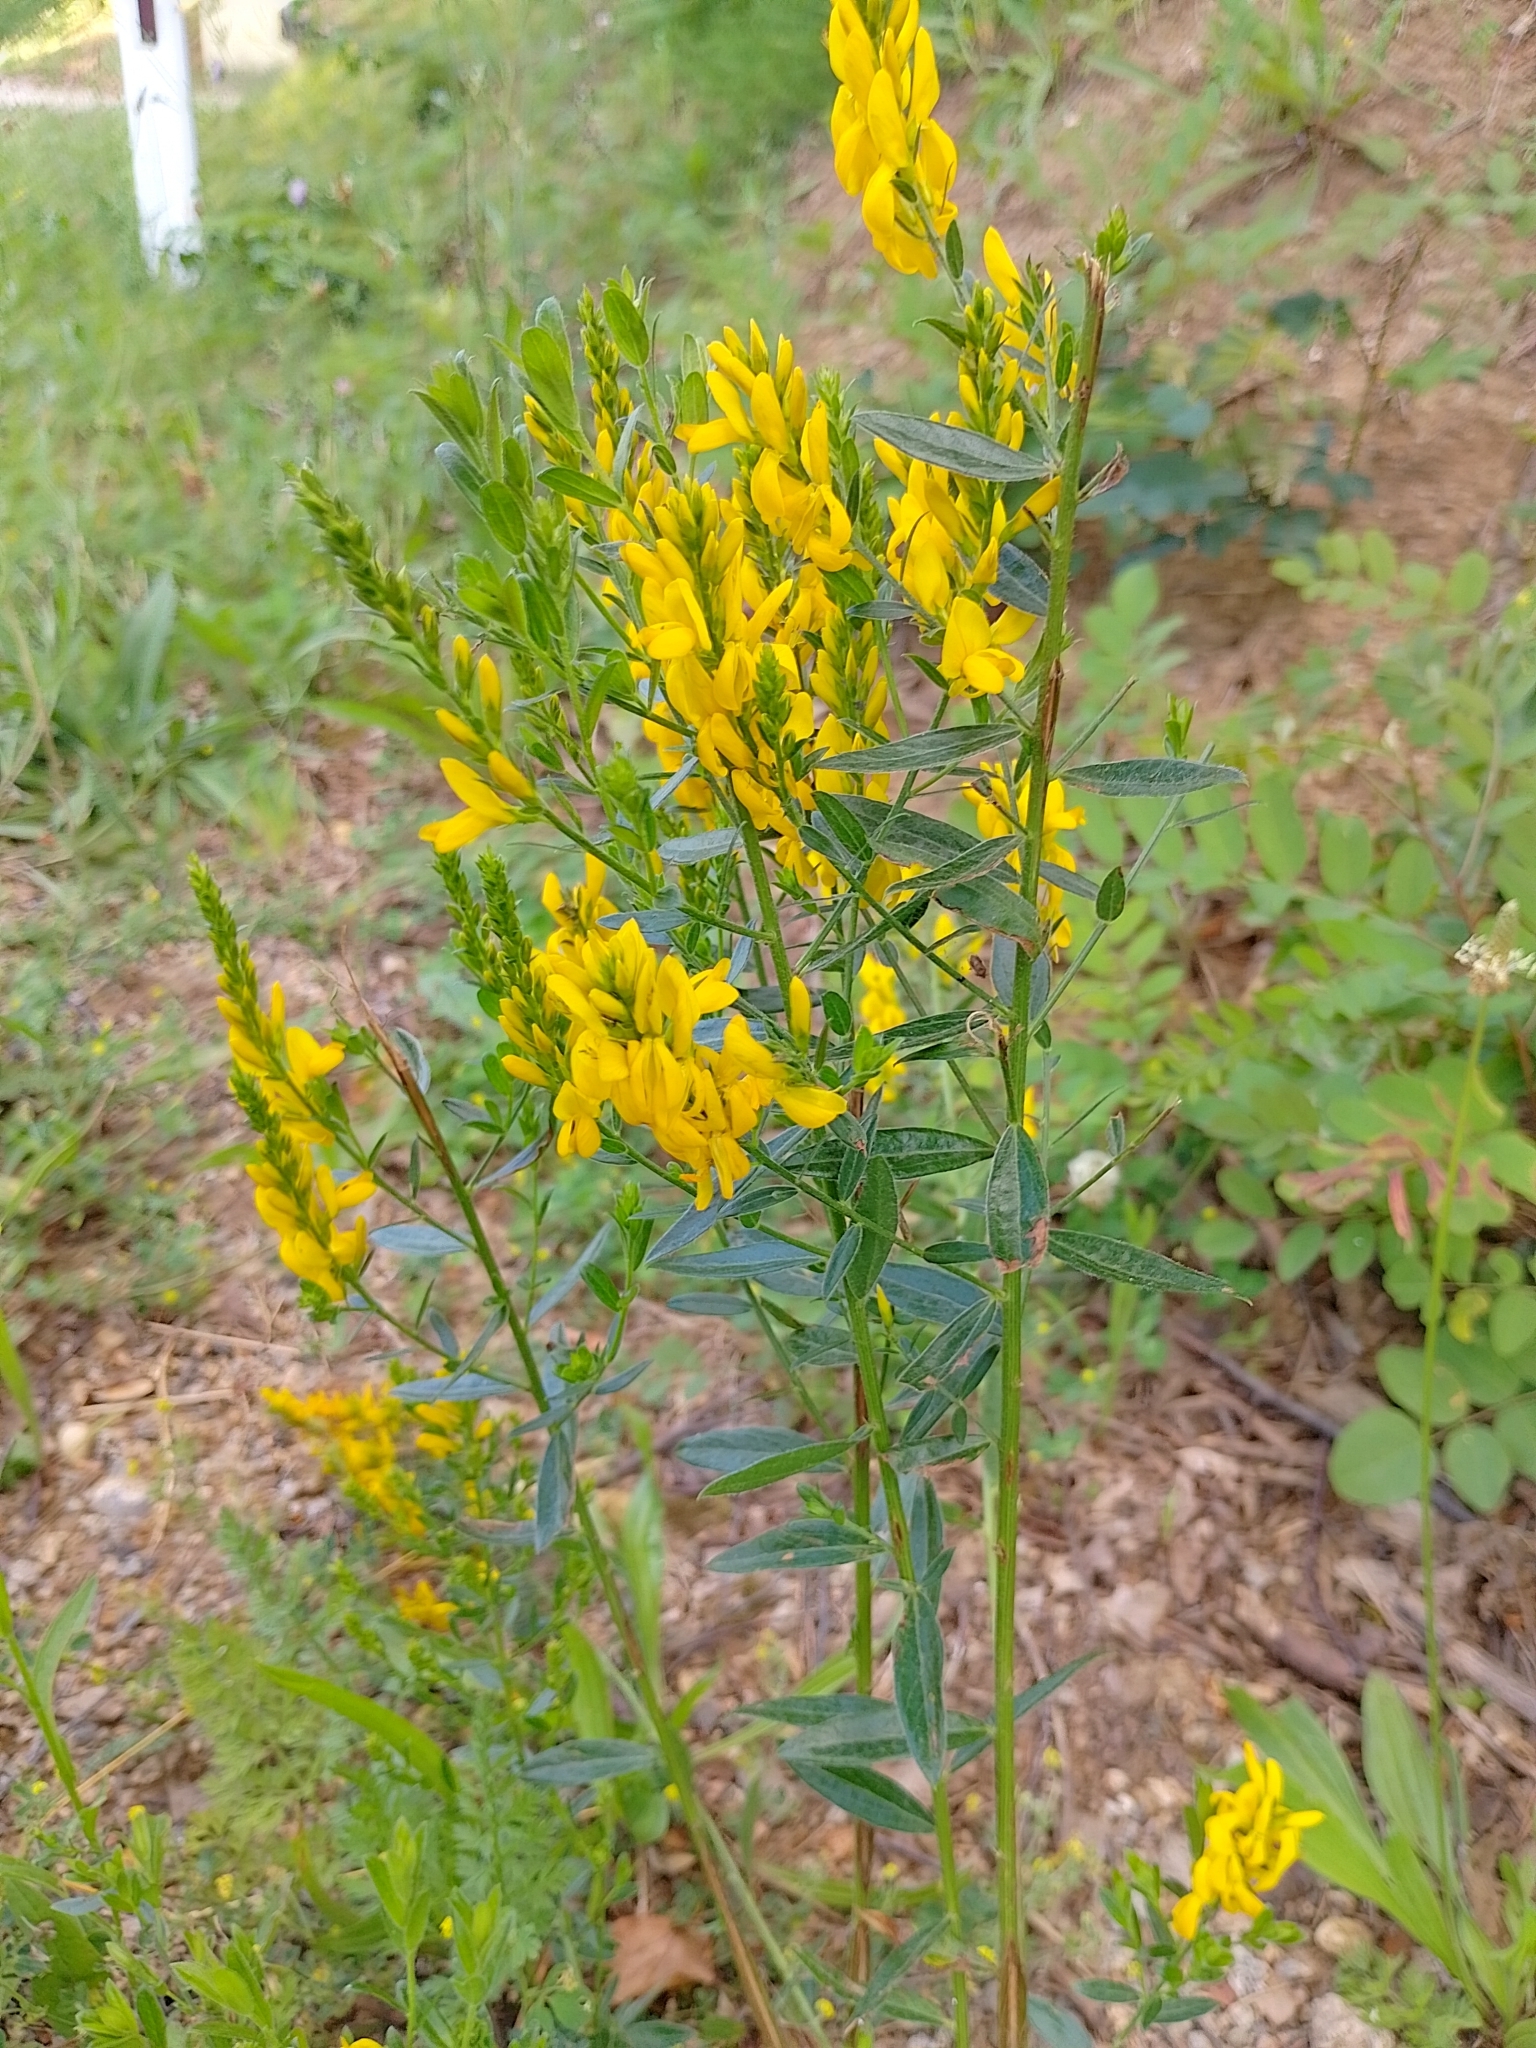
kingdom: Plantae
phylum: Tracheophyta
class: Magnoliopsida
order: Fabales
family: Fabaceae
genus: Genista
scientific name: Genista tinctoria
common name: Dyer's greenweed
